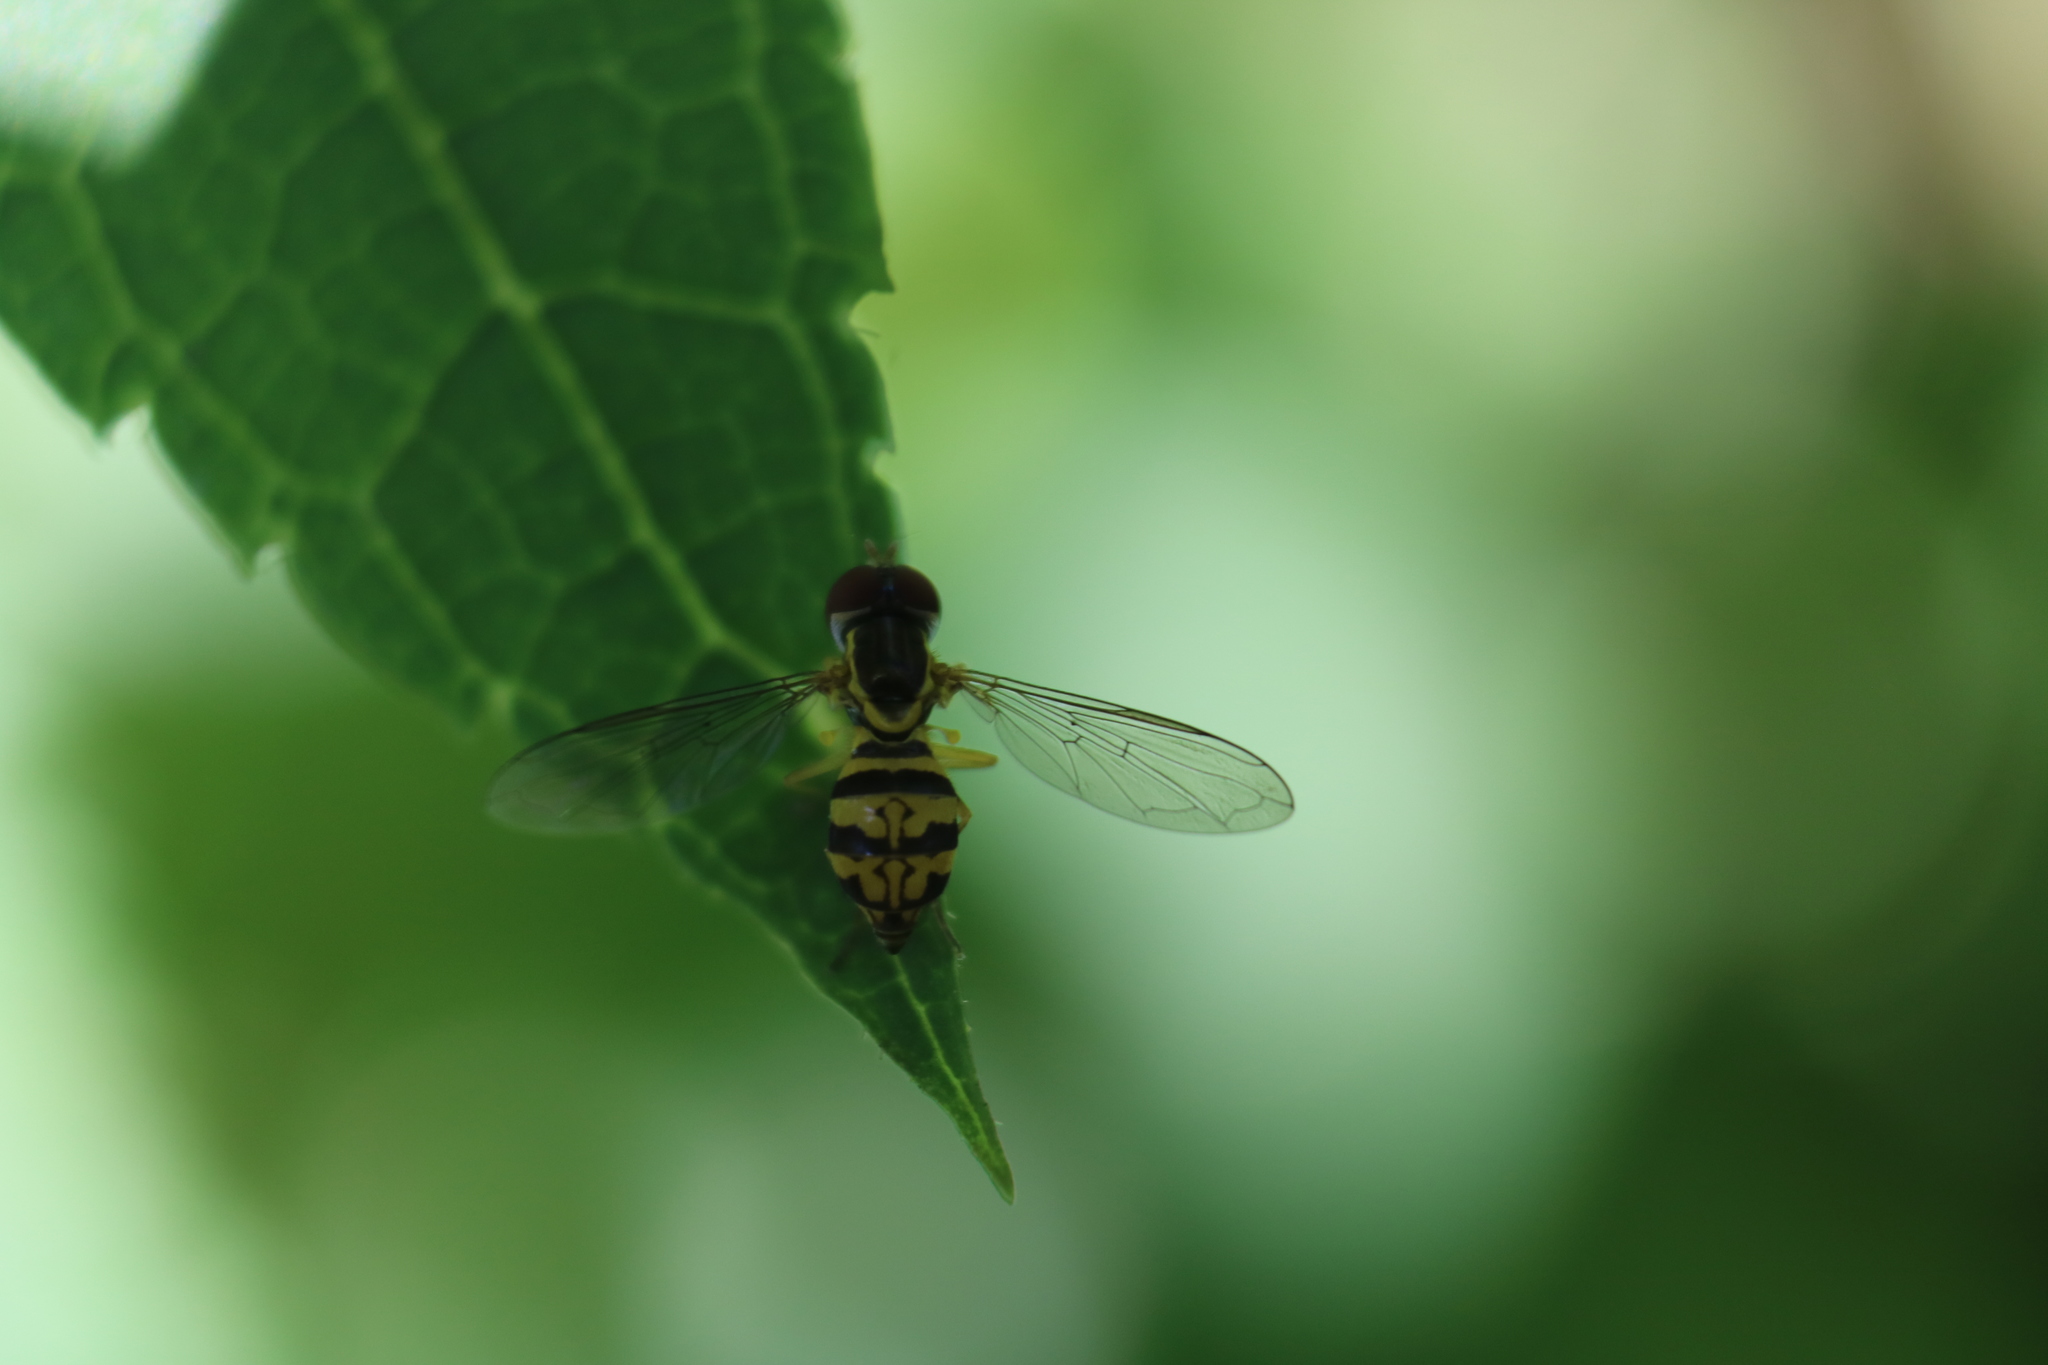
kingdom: Animalia
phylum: Arthropoda
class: Insecta
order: Diptera
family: Syrphidae
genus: Toxomerus
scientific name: Toxomerus geminatus
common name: Eastern calligrapher
